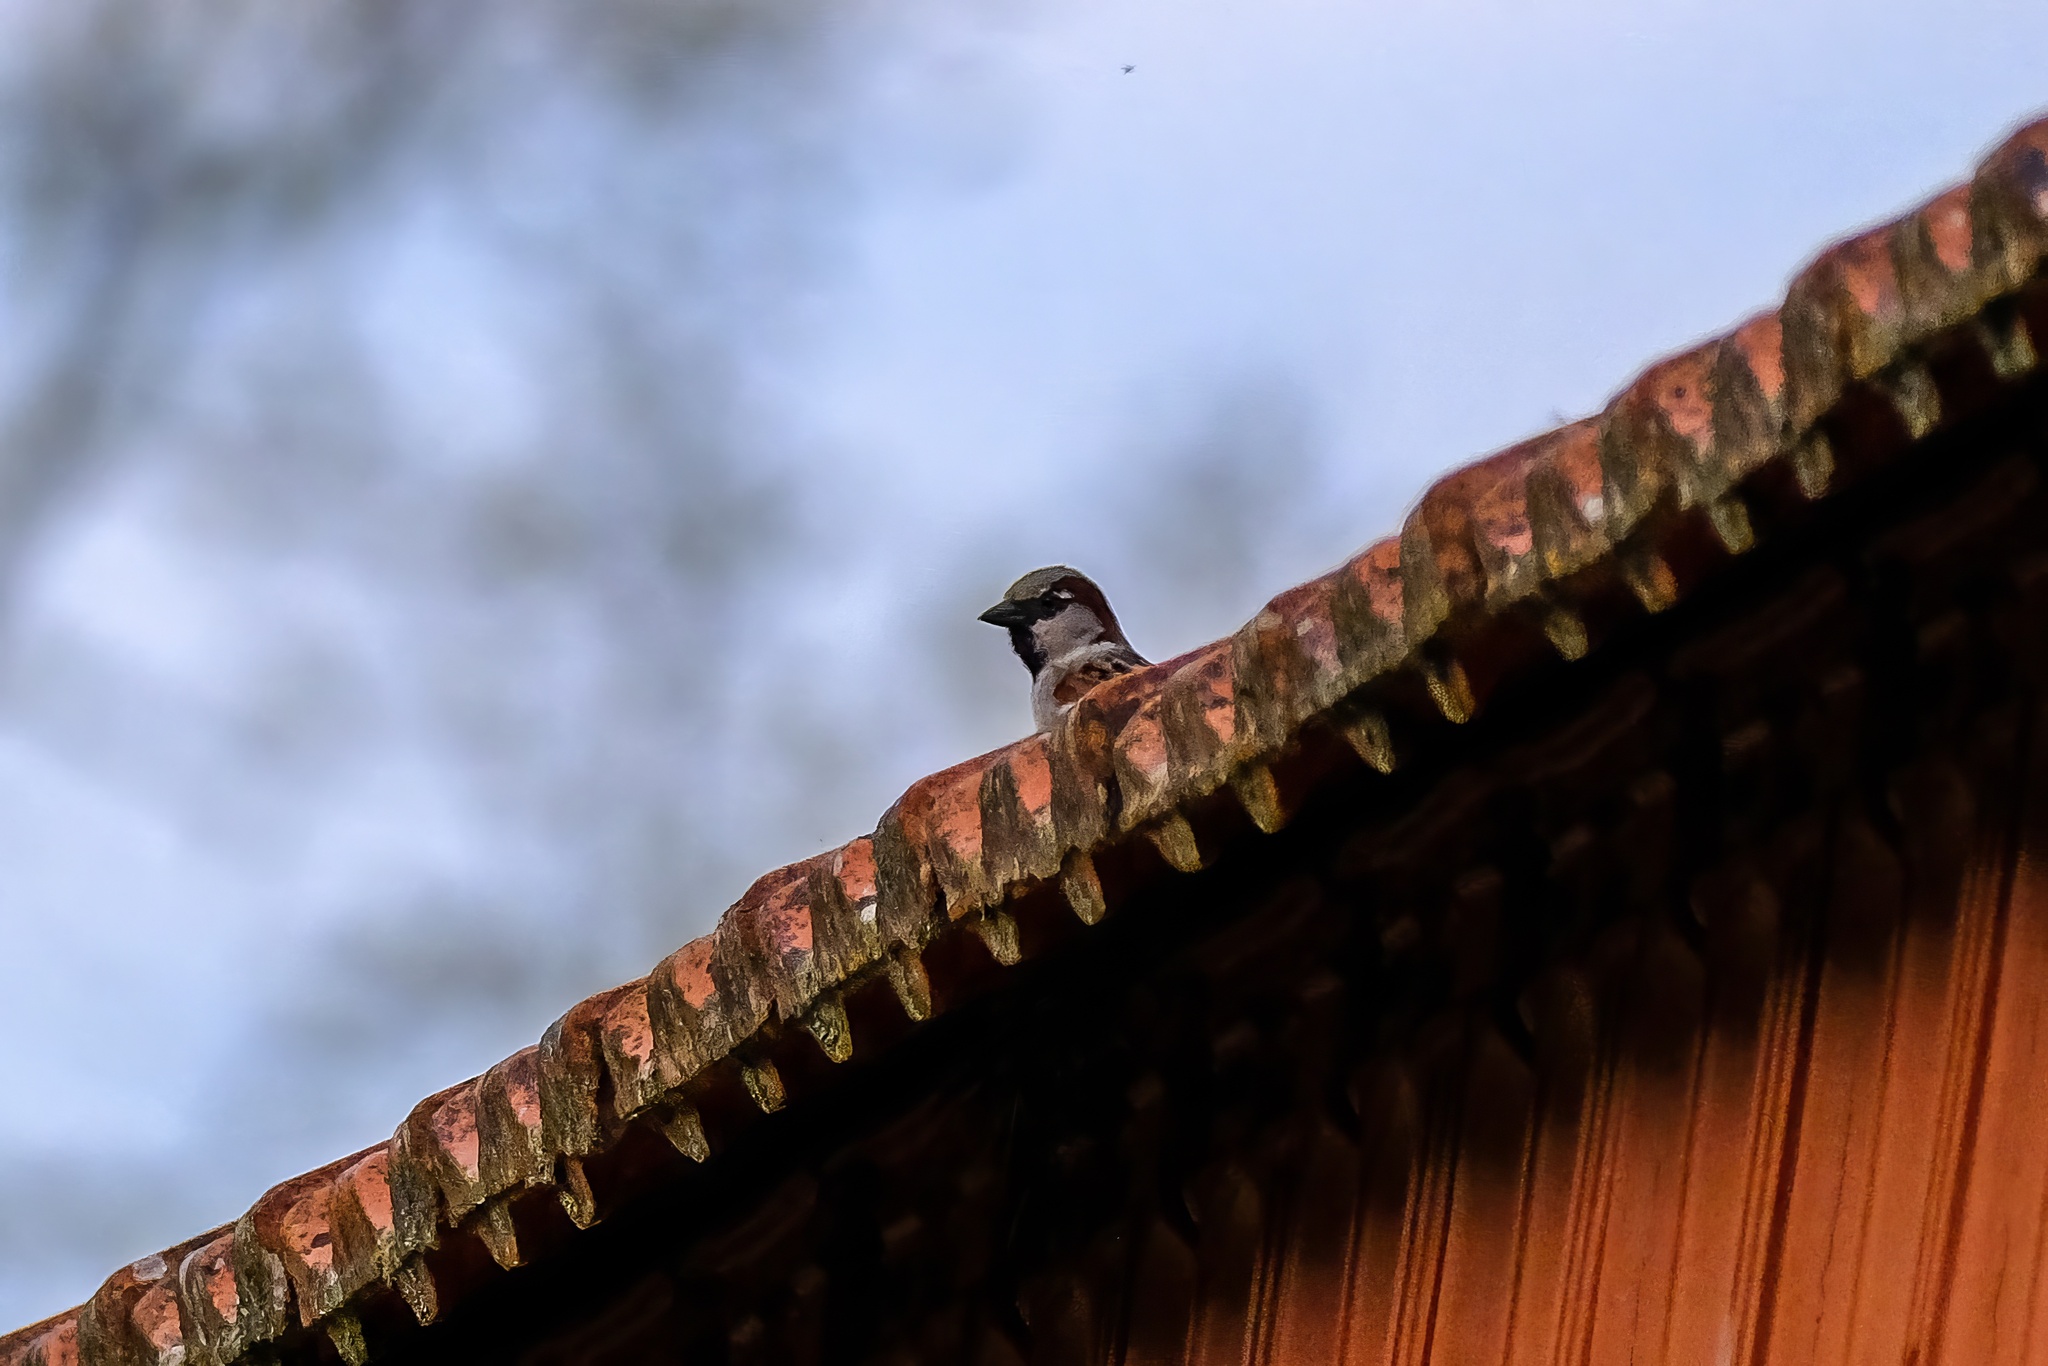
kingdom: Animalia
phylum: Chordata
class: Aves
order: Passeriformes
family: Passeridae
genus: Passer
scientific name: Passer domesticus
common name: House sparrow
